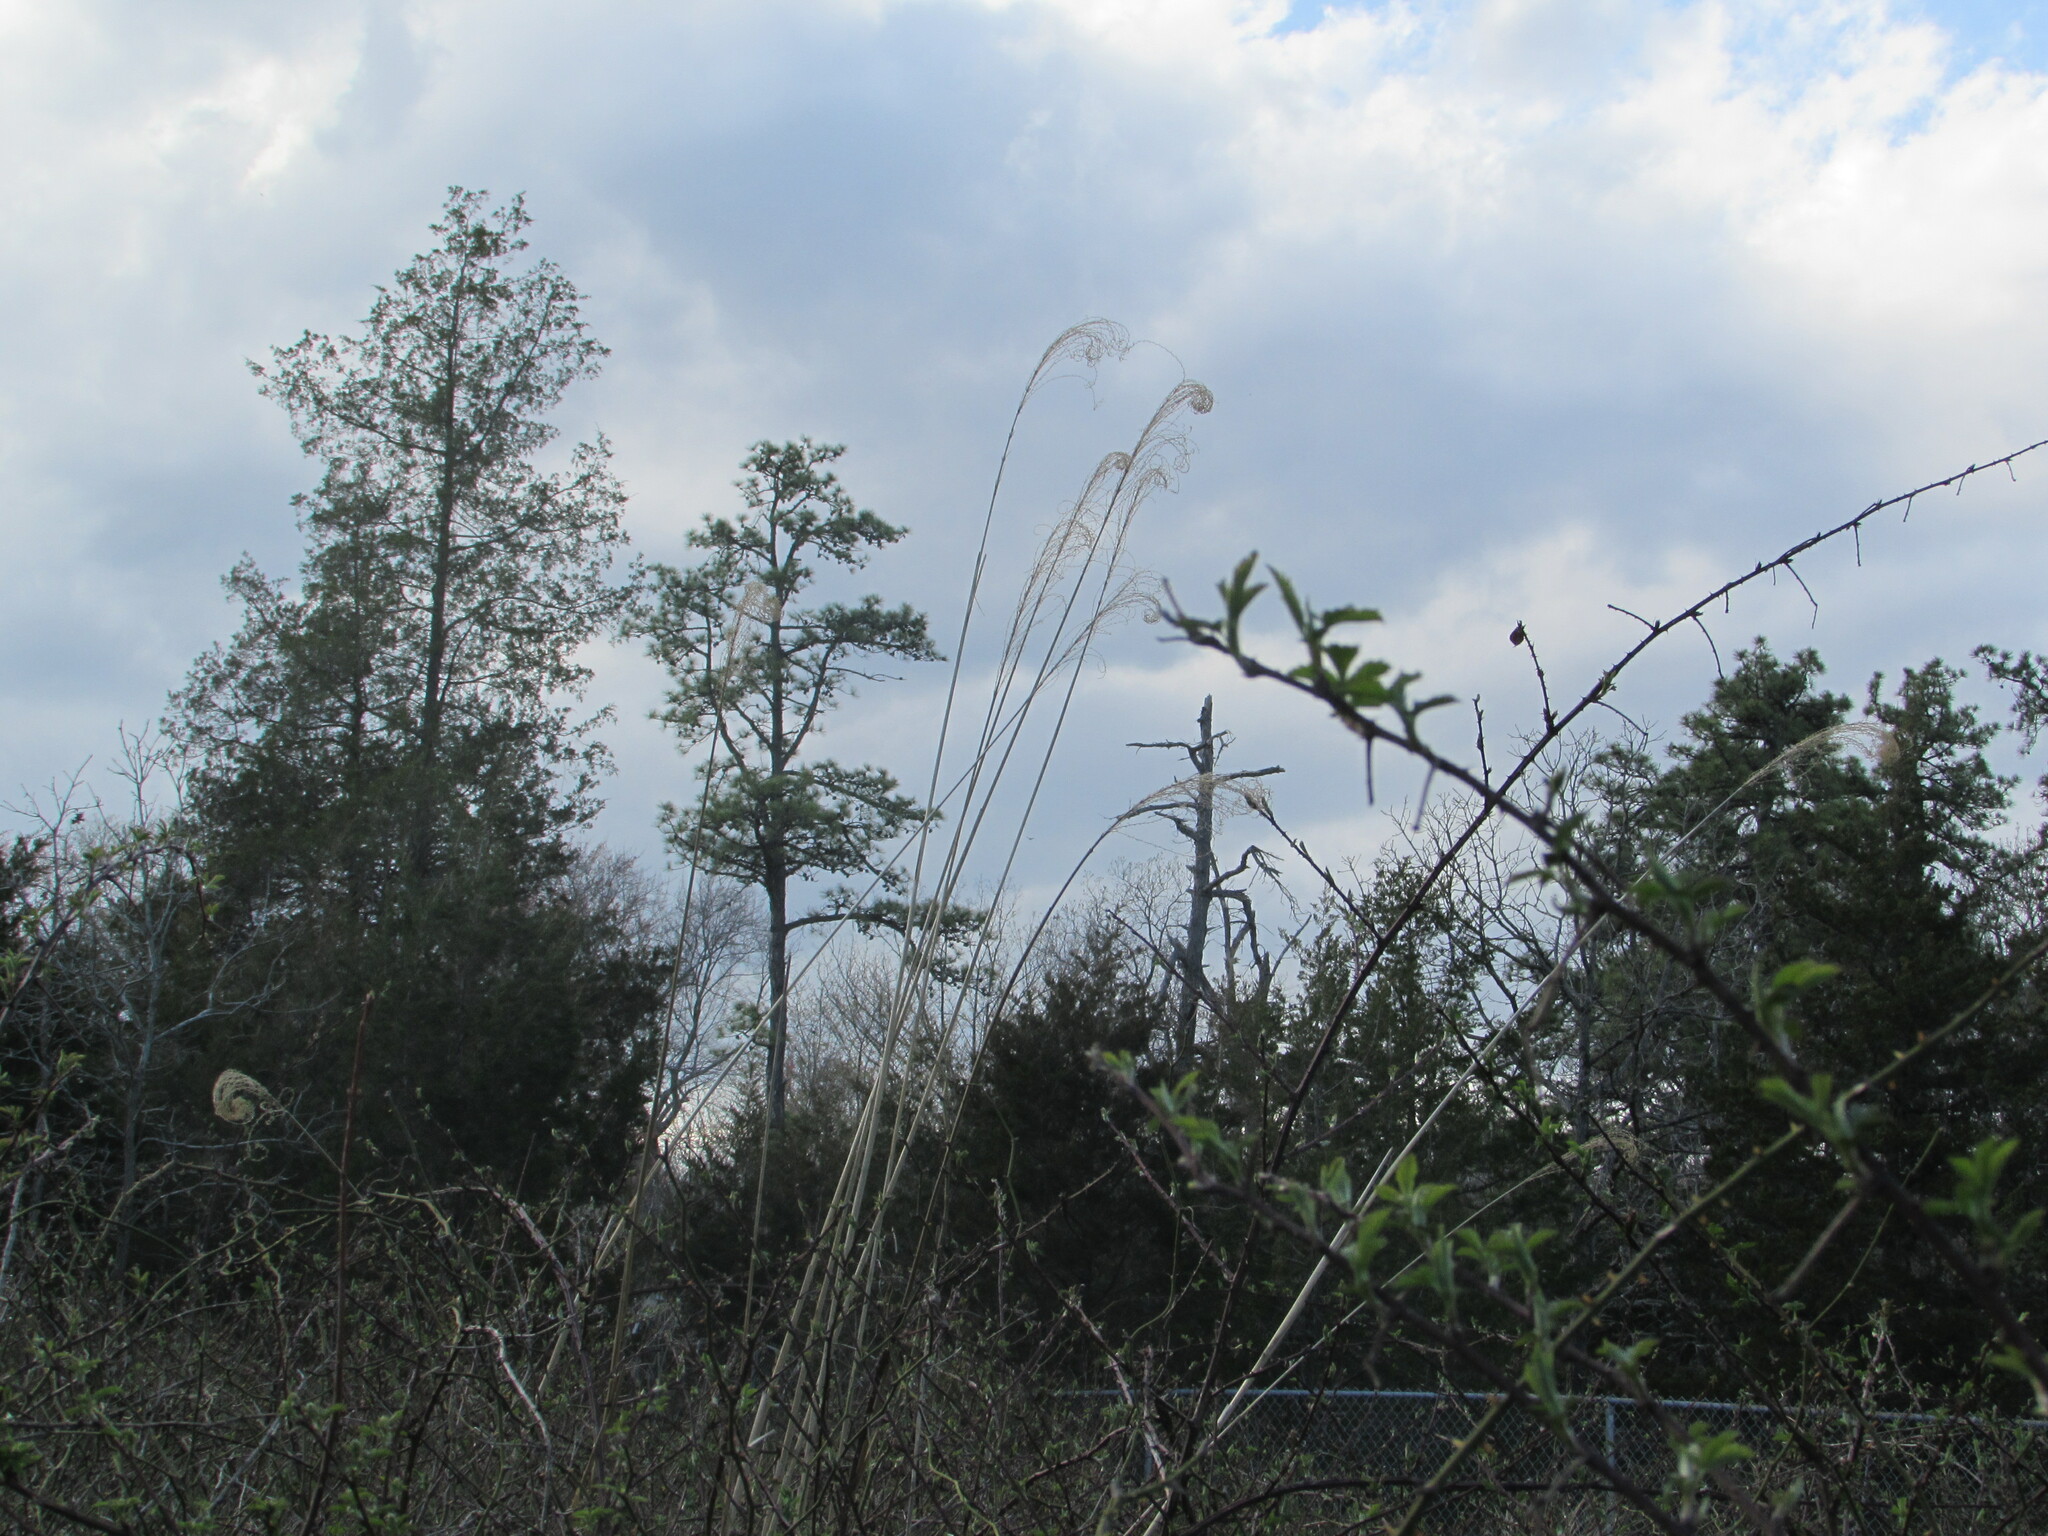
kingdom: Plantae
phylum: Tracheophyta
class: Liliopsida
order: Poales
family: Poaceae
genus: Miscanthus
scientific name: Miscanthus sinensis
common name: Chinese silvergrass
